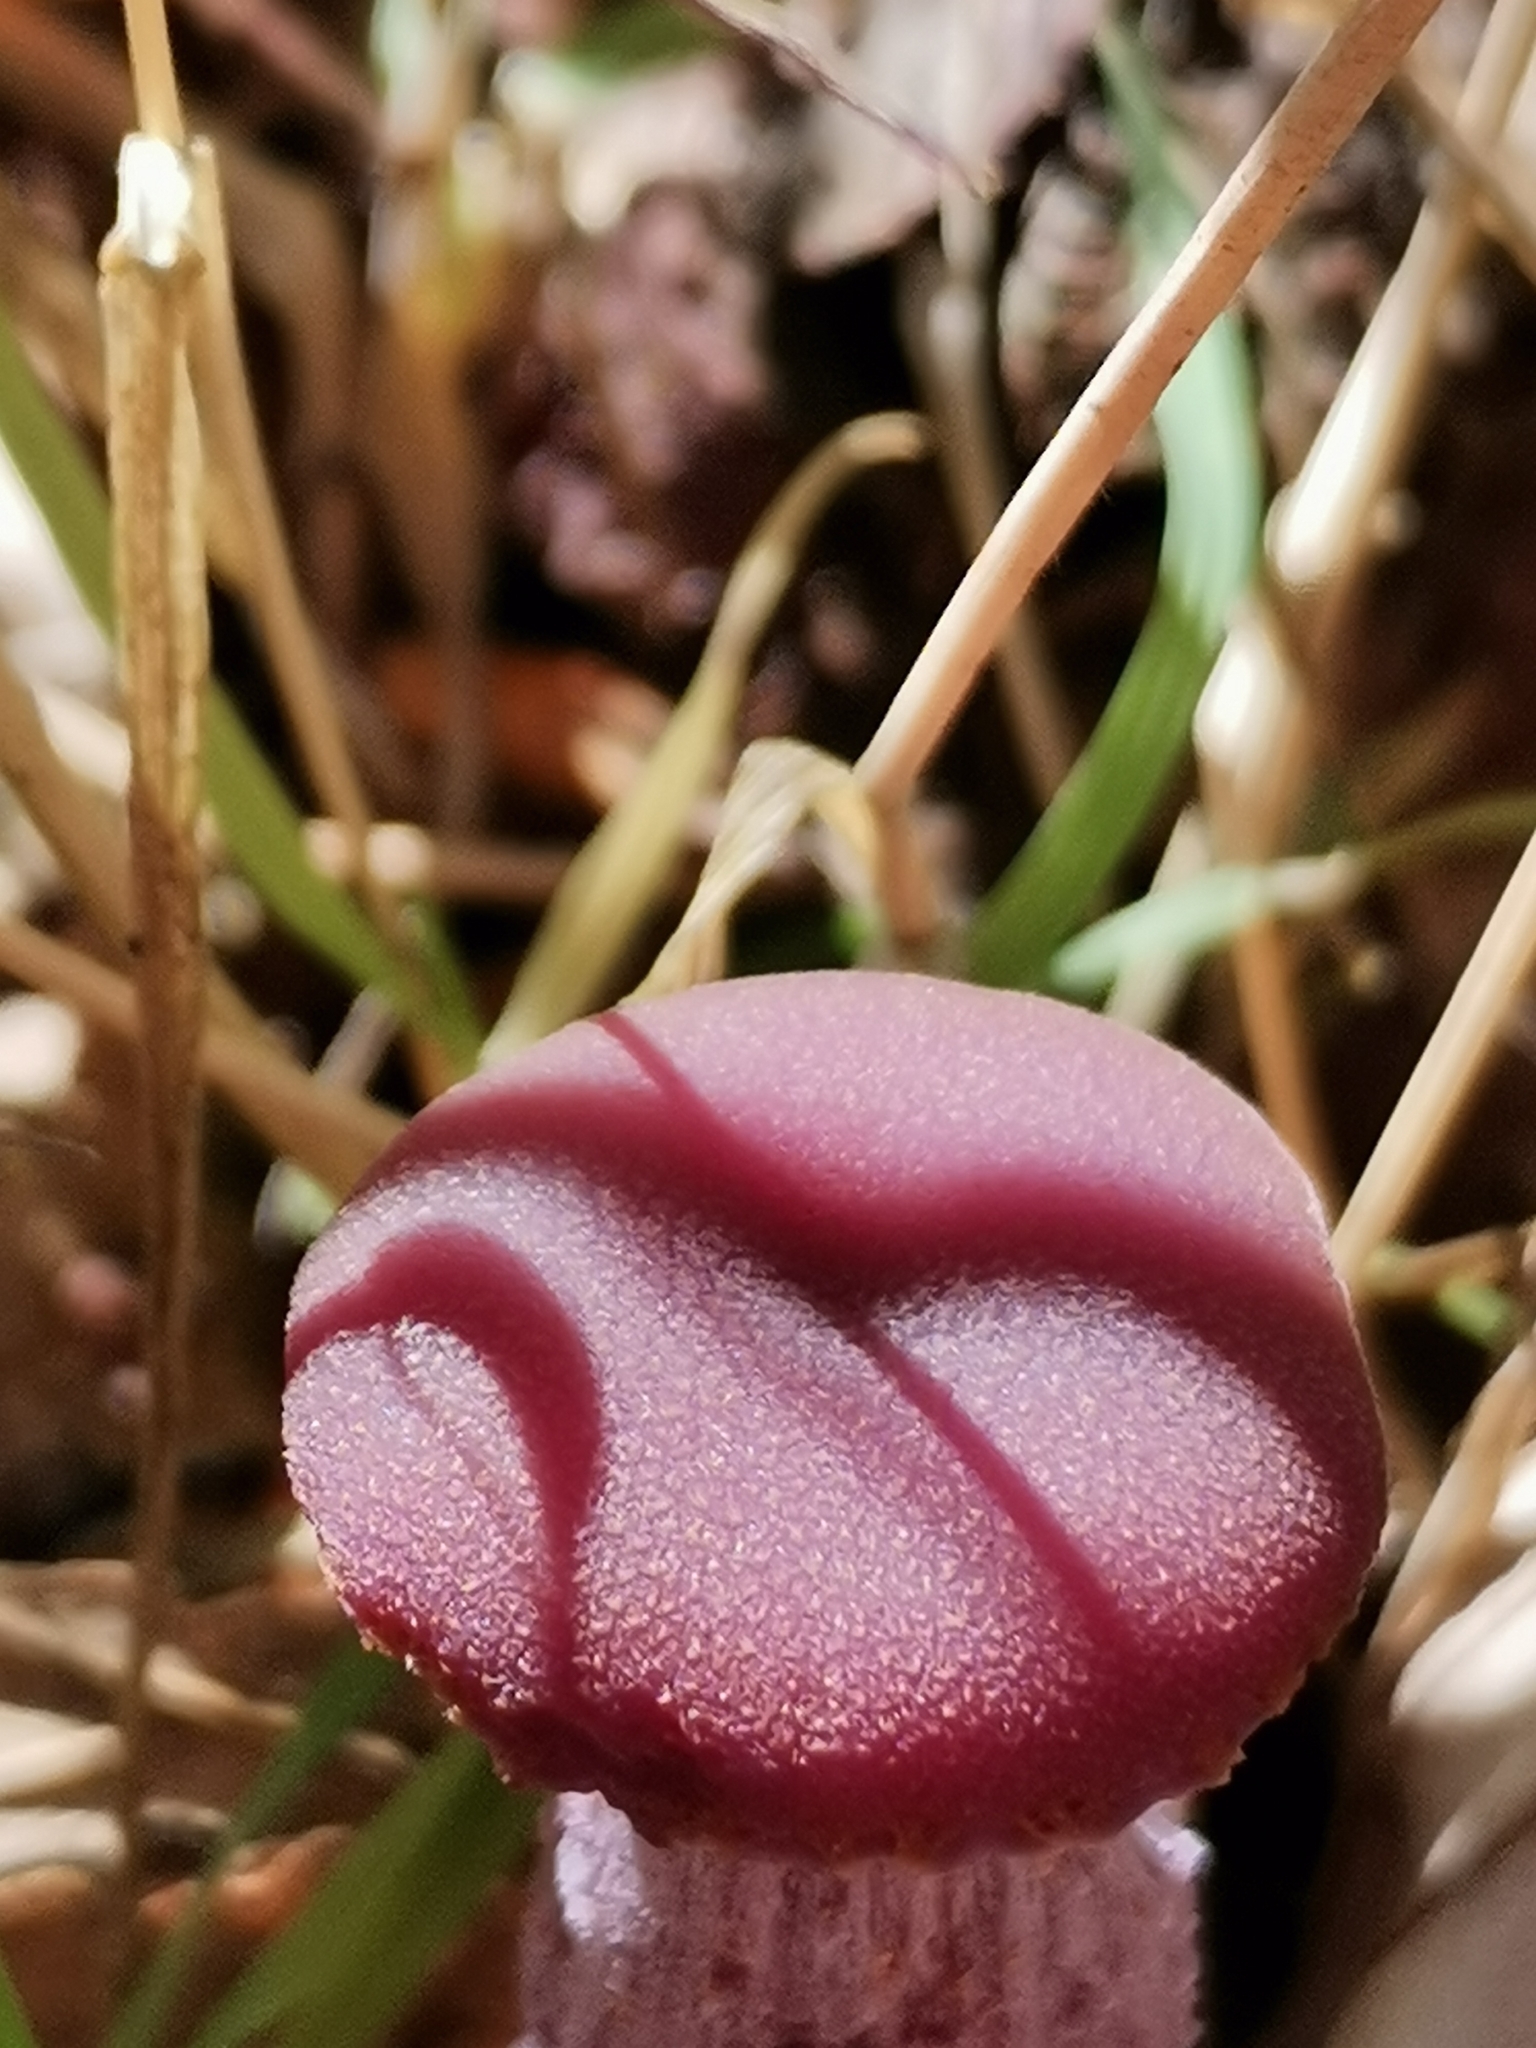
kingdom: Fungi
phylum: Basidiomycota
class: Agaricomycetes
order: Agaricales
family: Hydnangiaceae
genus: Laccaria
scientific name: Laccaria amethystina
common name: Amethyst deceiver
